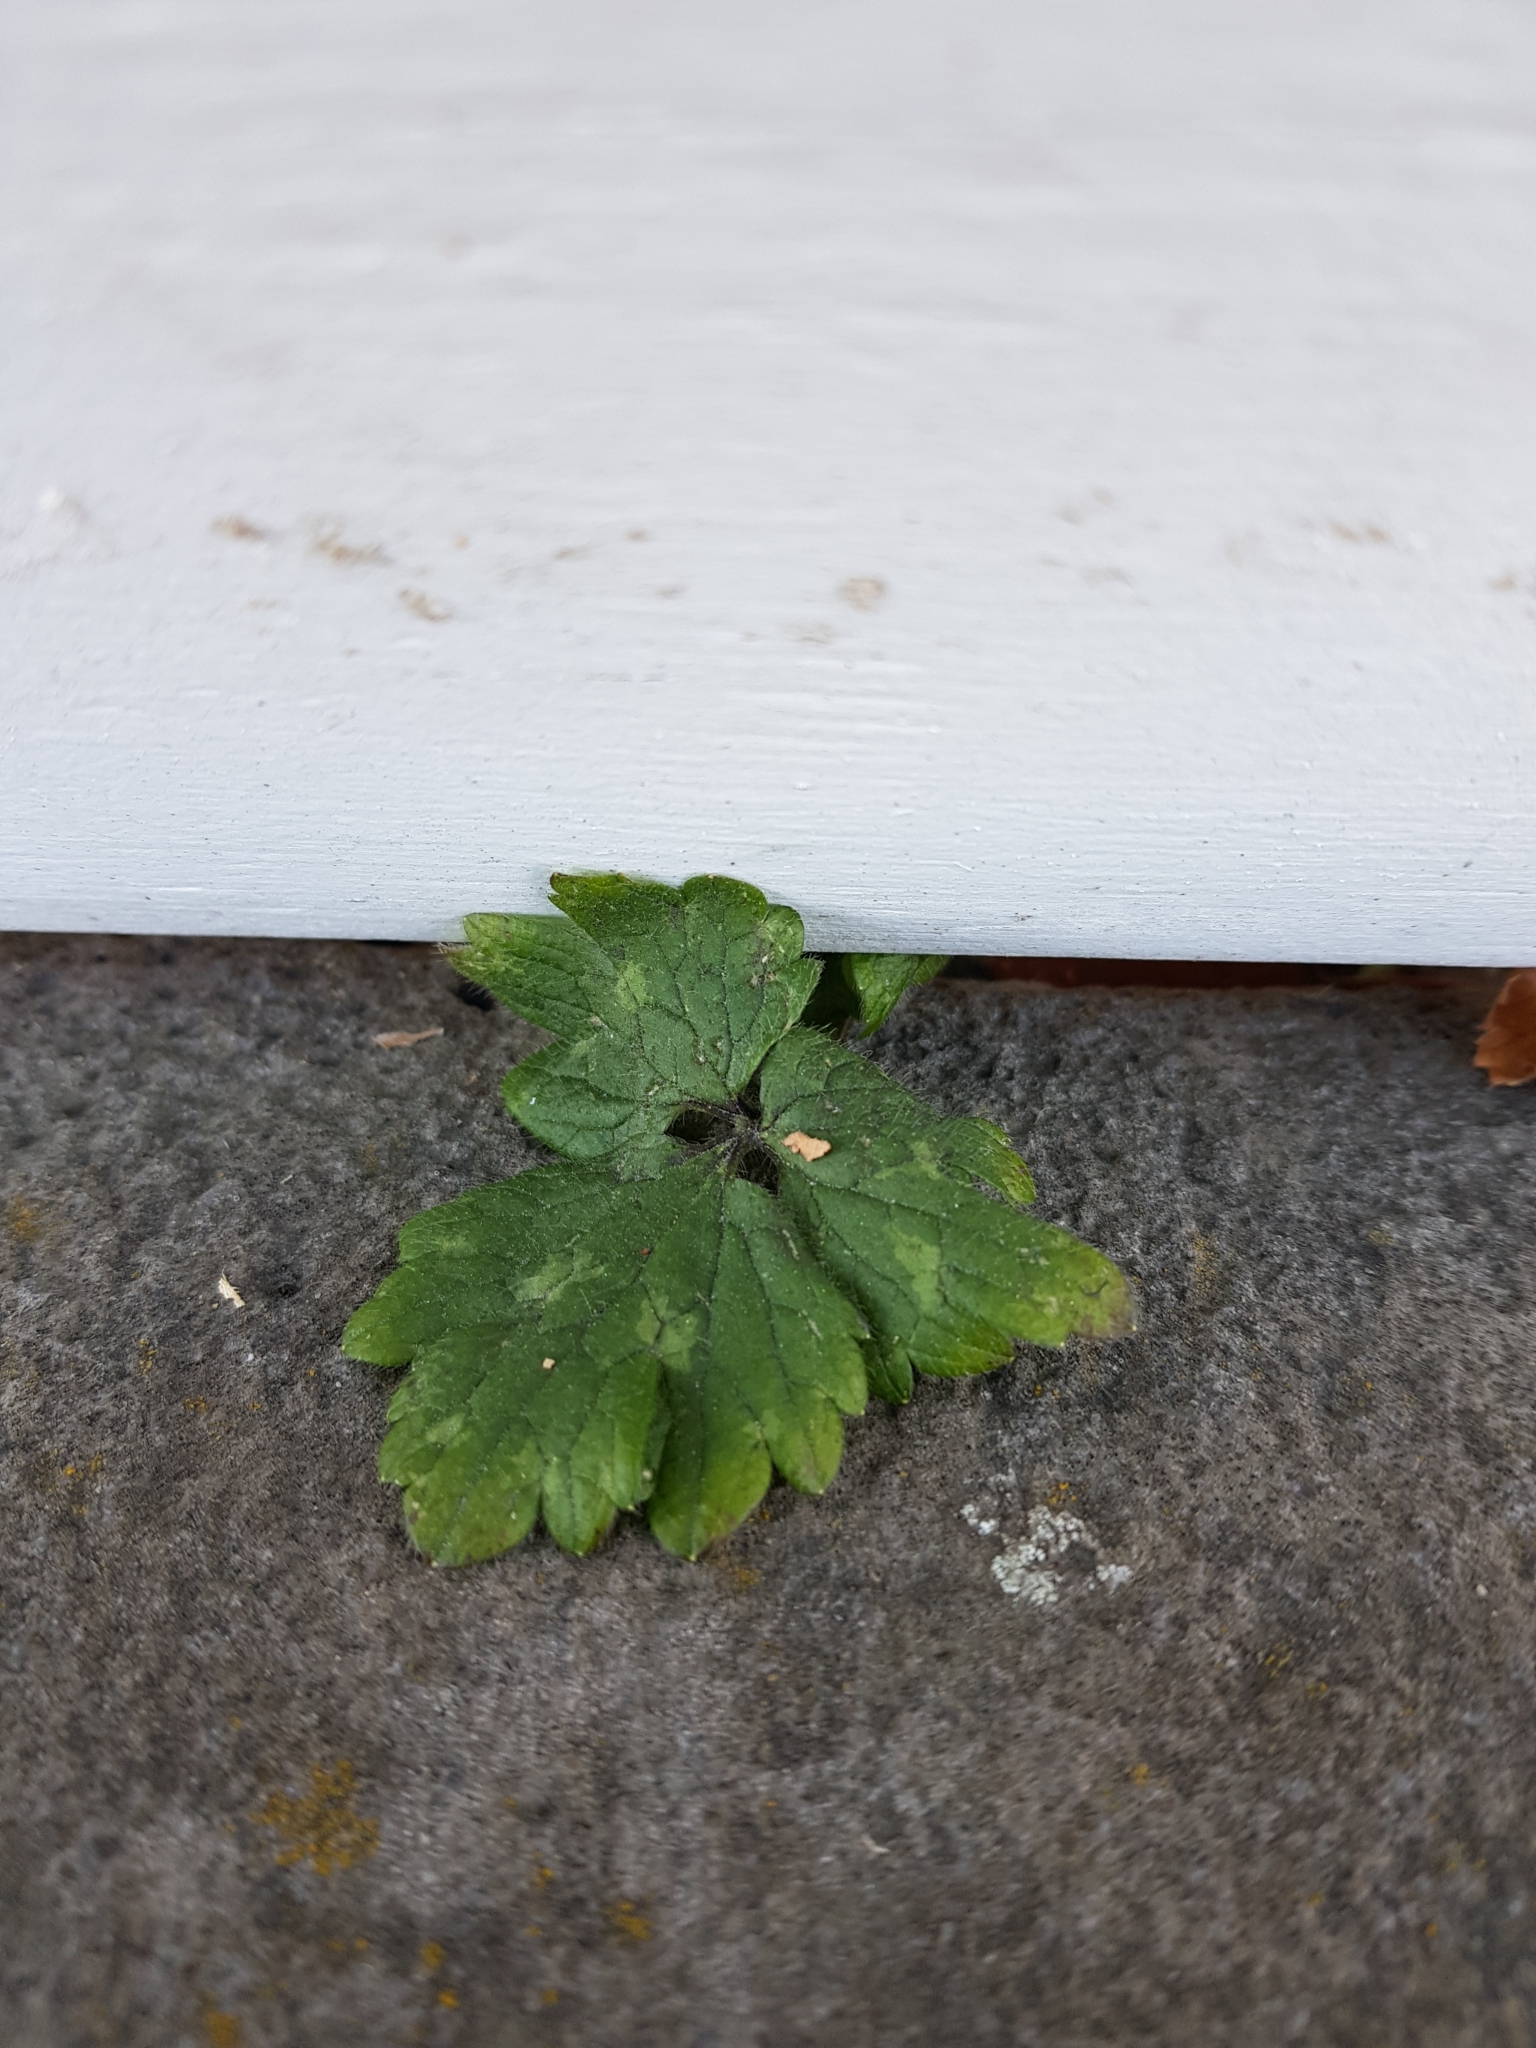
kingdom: Plantae
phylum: Tracheophyta
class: Magnoliopsida
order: Ranunculales
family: Ranunculaceae
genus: Ranunculus
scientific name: Ranunculus repens
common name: Creeping buttercup
